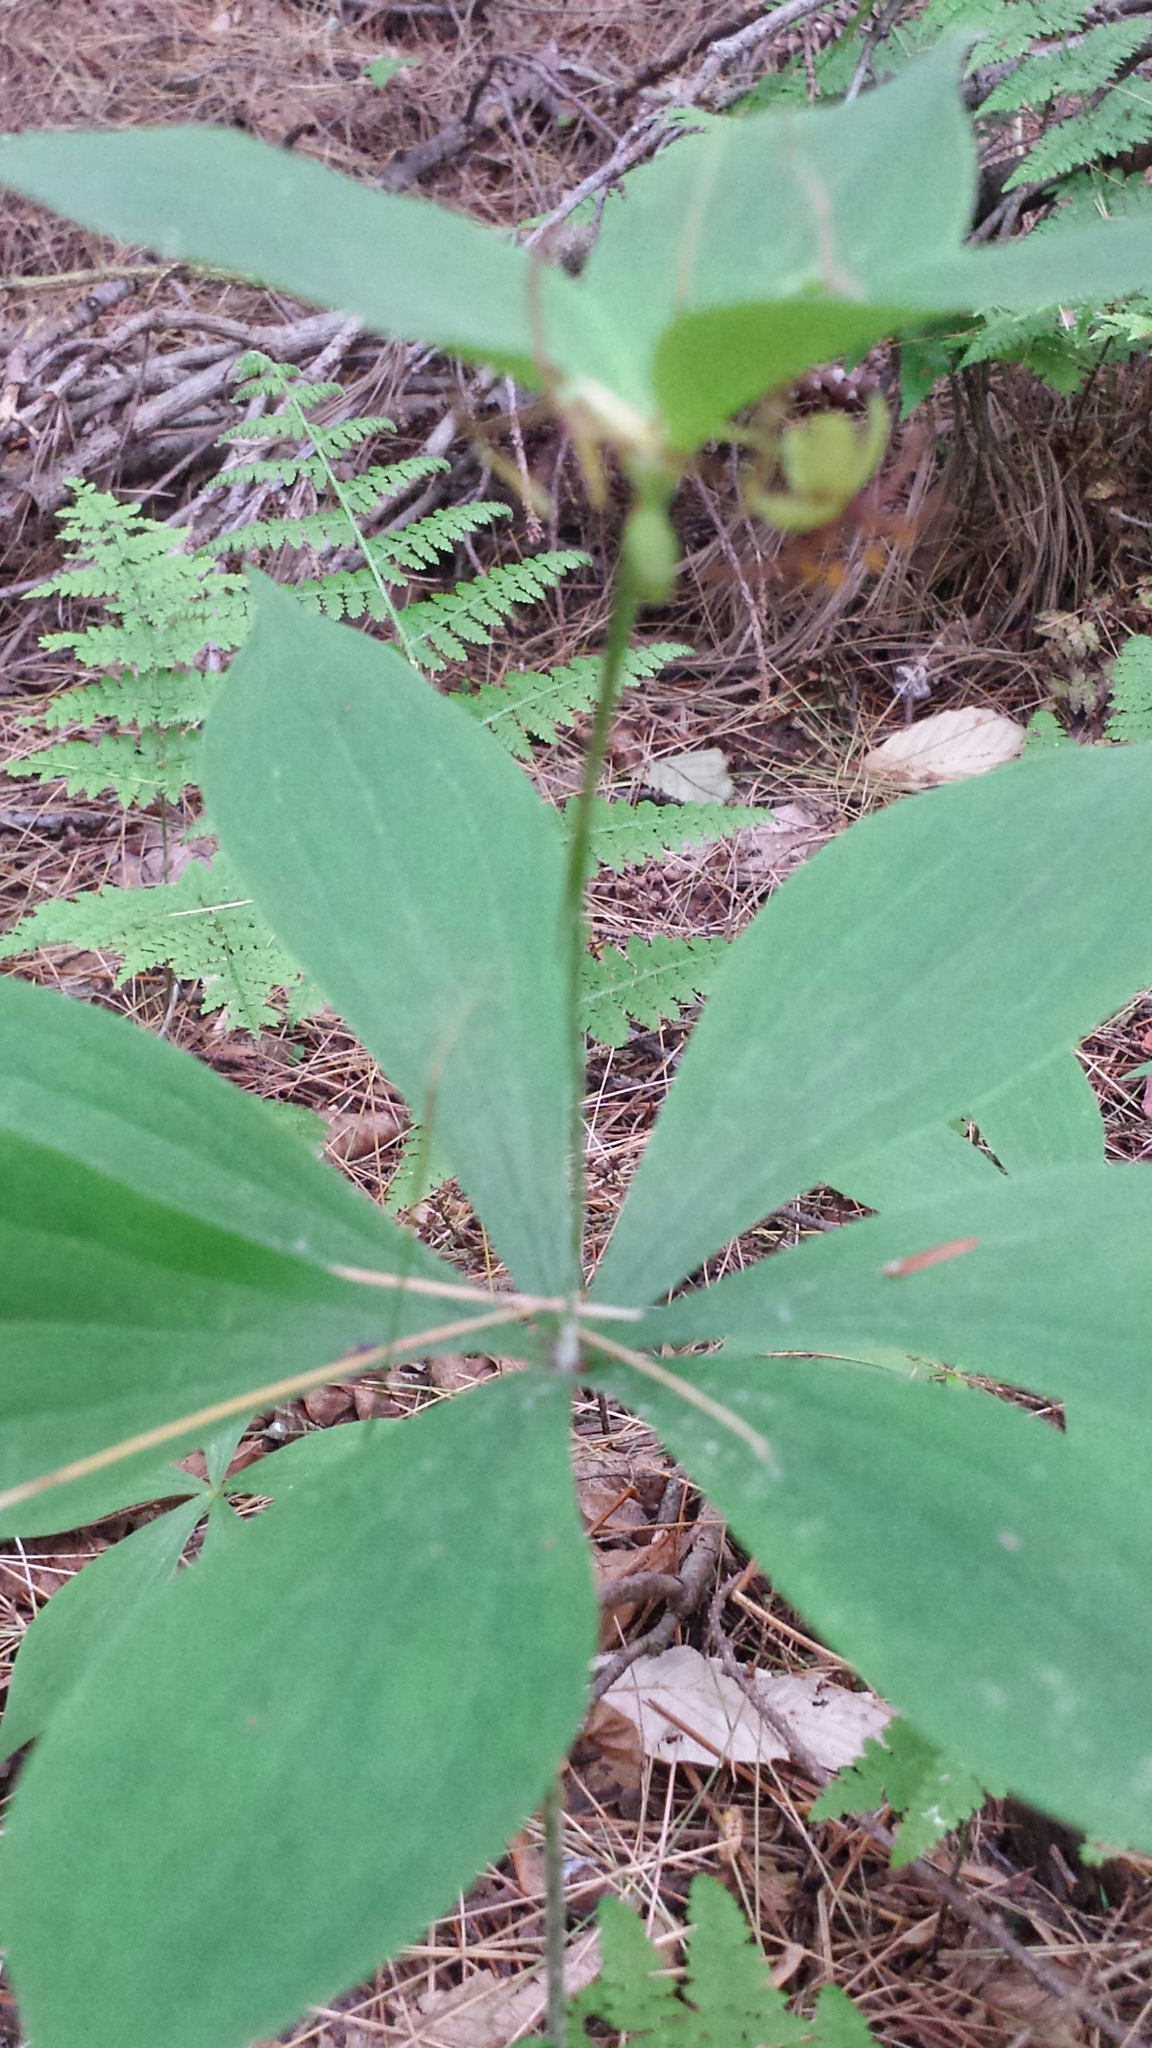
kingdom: Plantae
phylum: Tracheophyta
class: Liliopsida
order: Liliales
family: Liliaceae
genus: Medeola
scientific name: Medeola virginiana
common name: Indian cucumber-root
